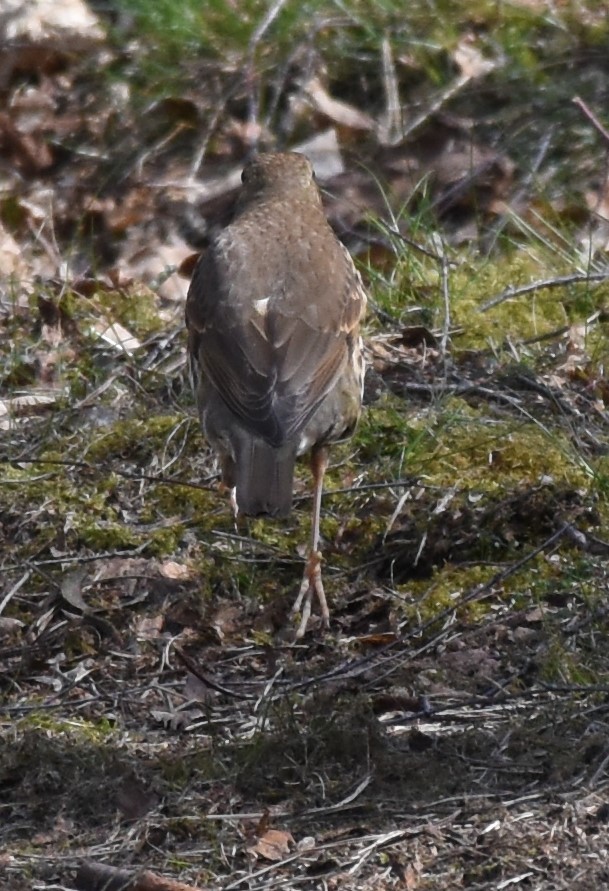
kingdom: Animalia
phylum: Chordata
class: Aves
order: Passeriformes
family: Turdidae
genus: Turdus
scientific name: Turdus philomelos
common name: Song thrush
